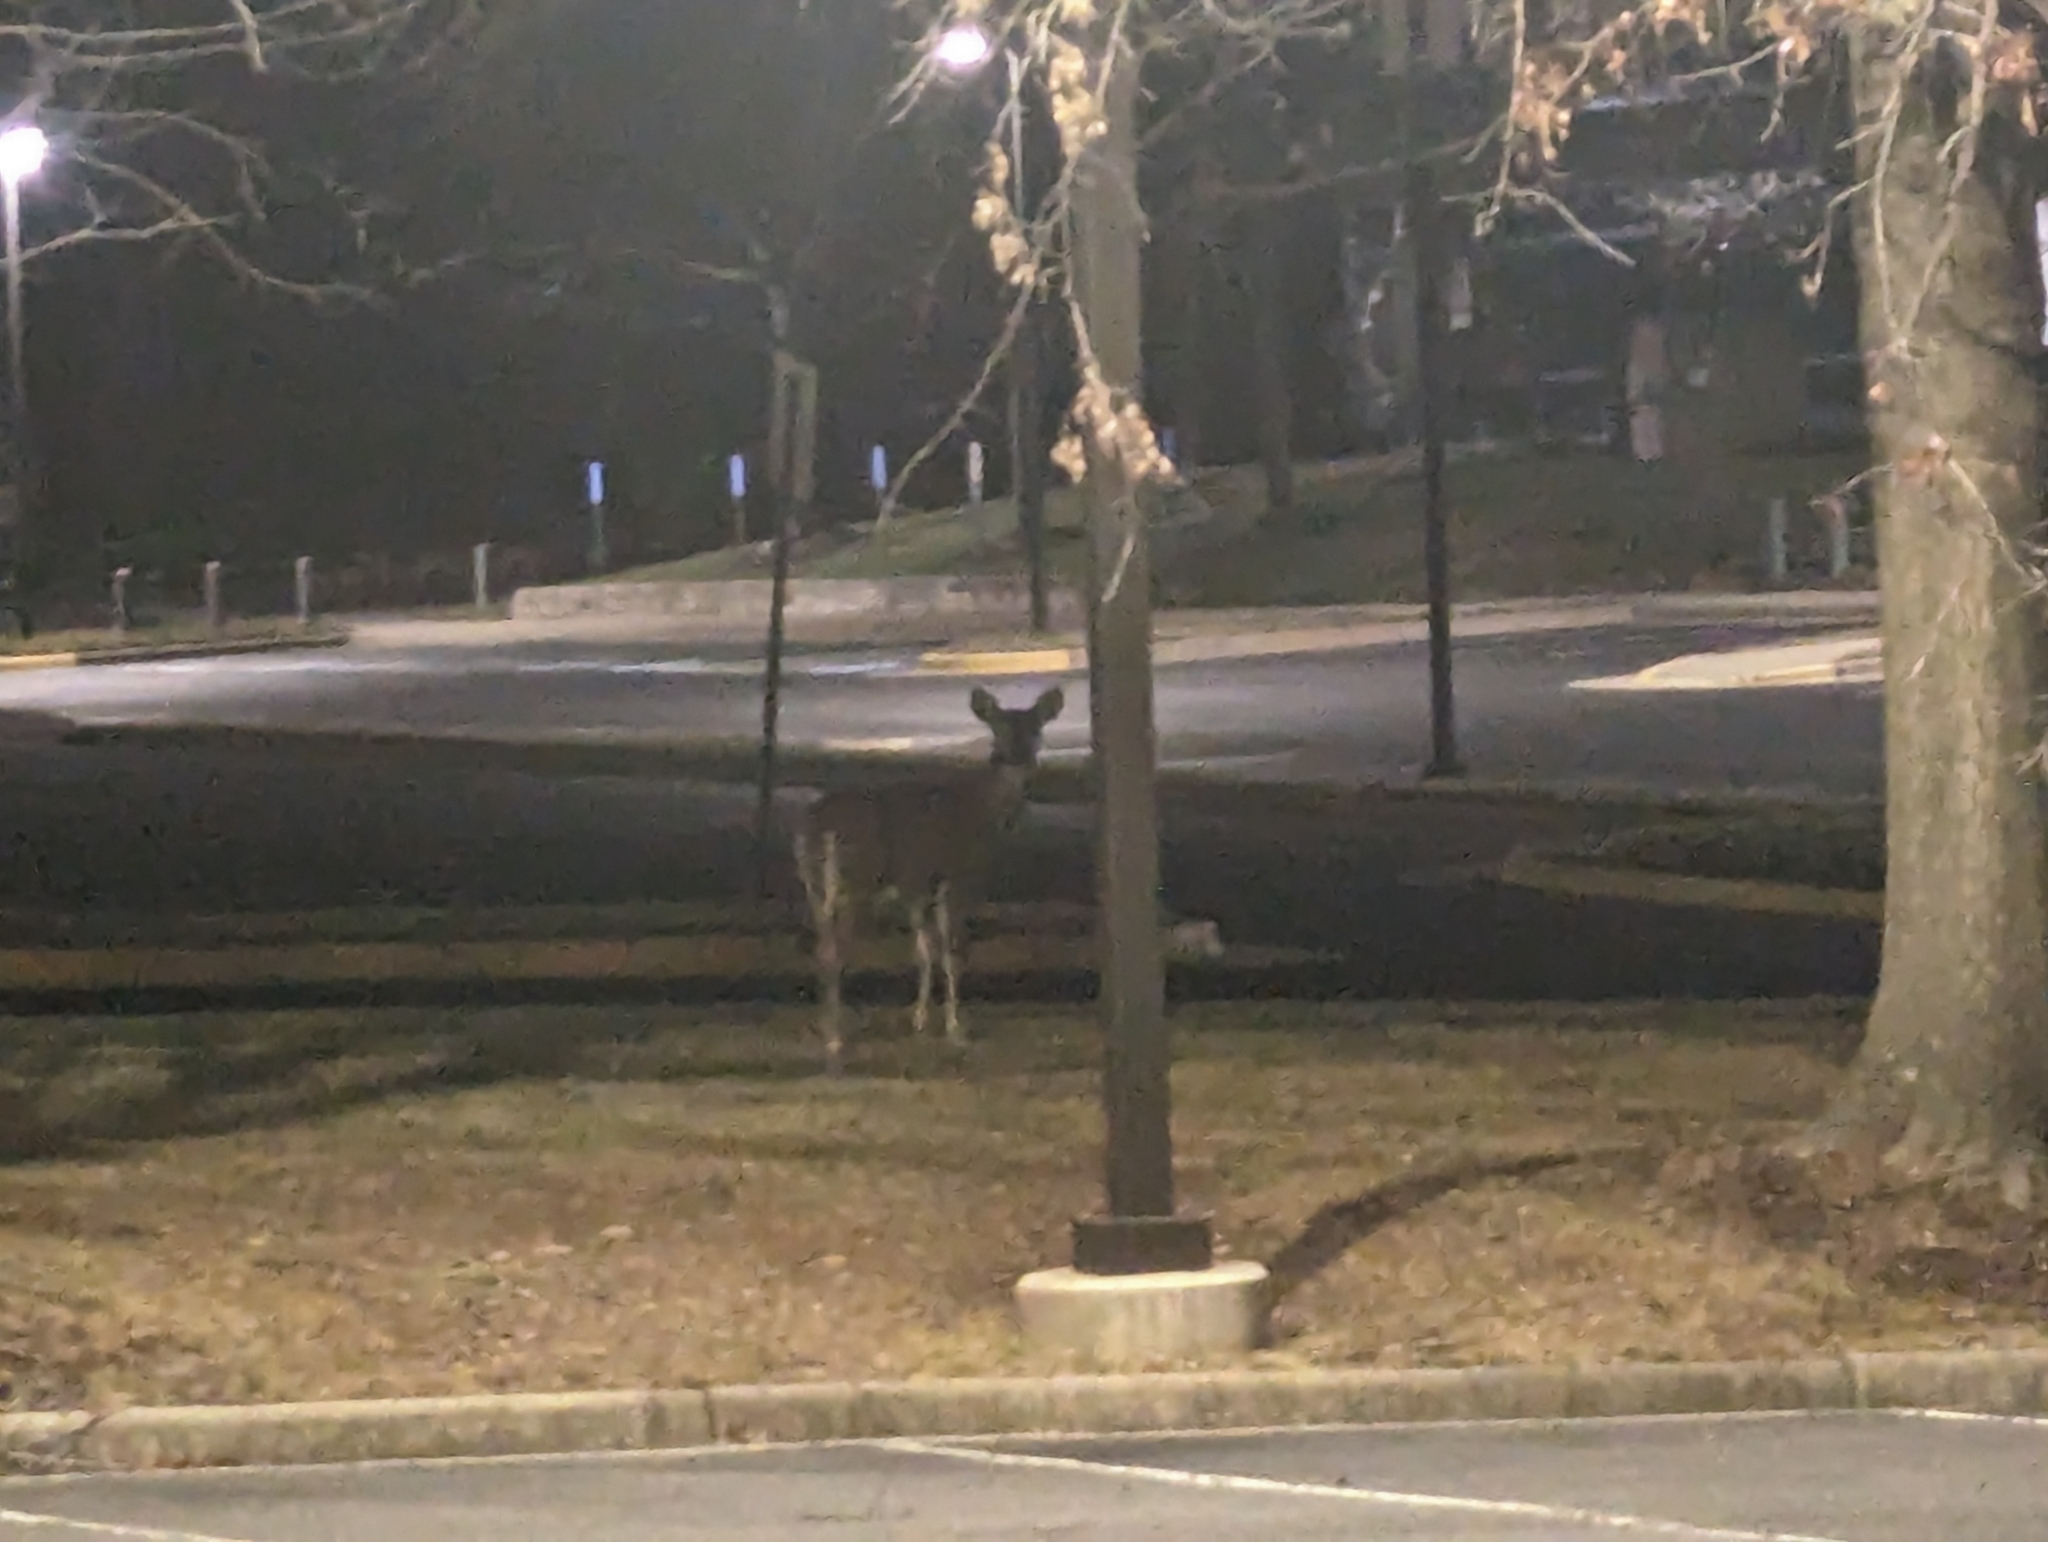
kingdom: Animalia
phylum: Chordata
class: Mammalia
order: Artiodactyla
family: Cervidae
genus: Odocoileus
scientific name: Odocoileus virginianus
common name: White-tailed deer
